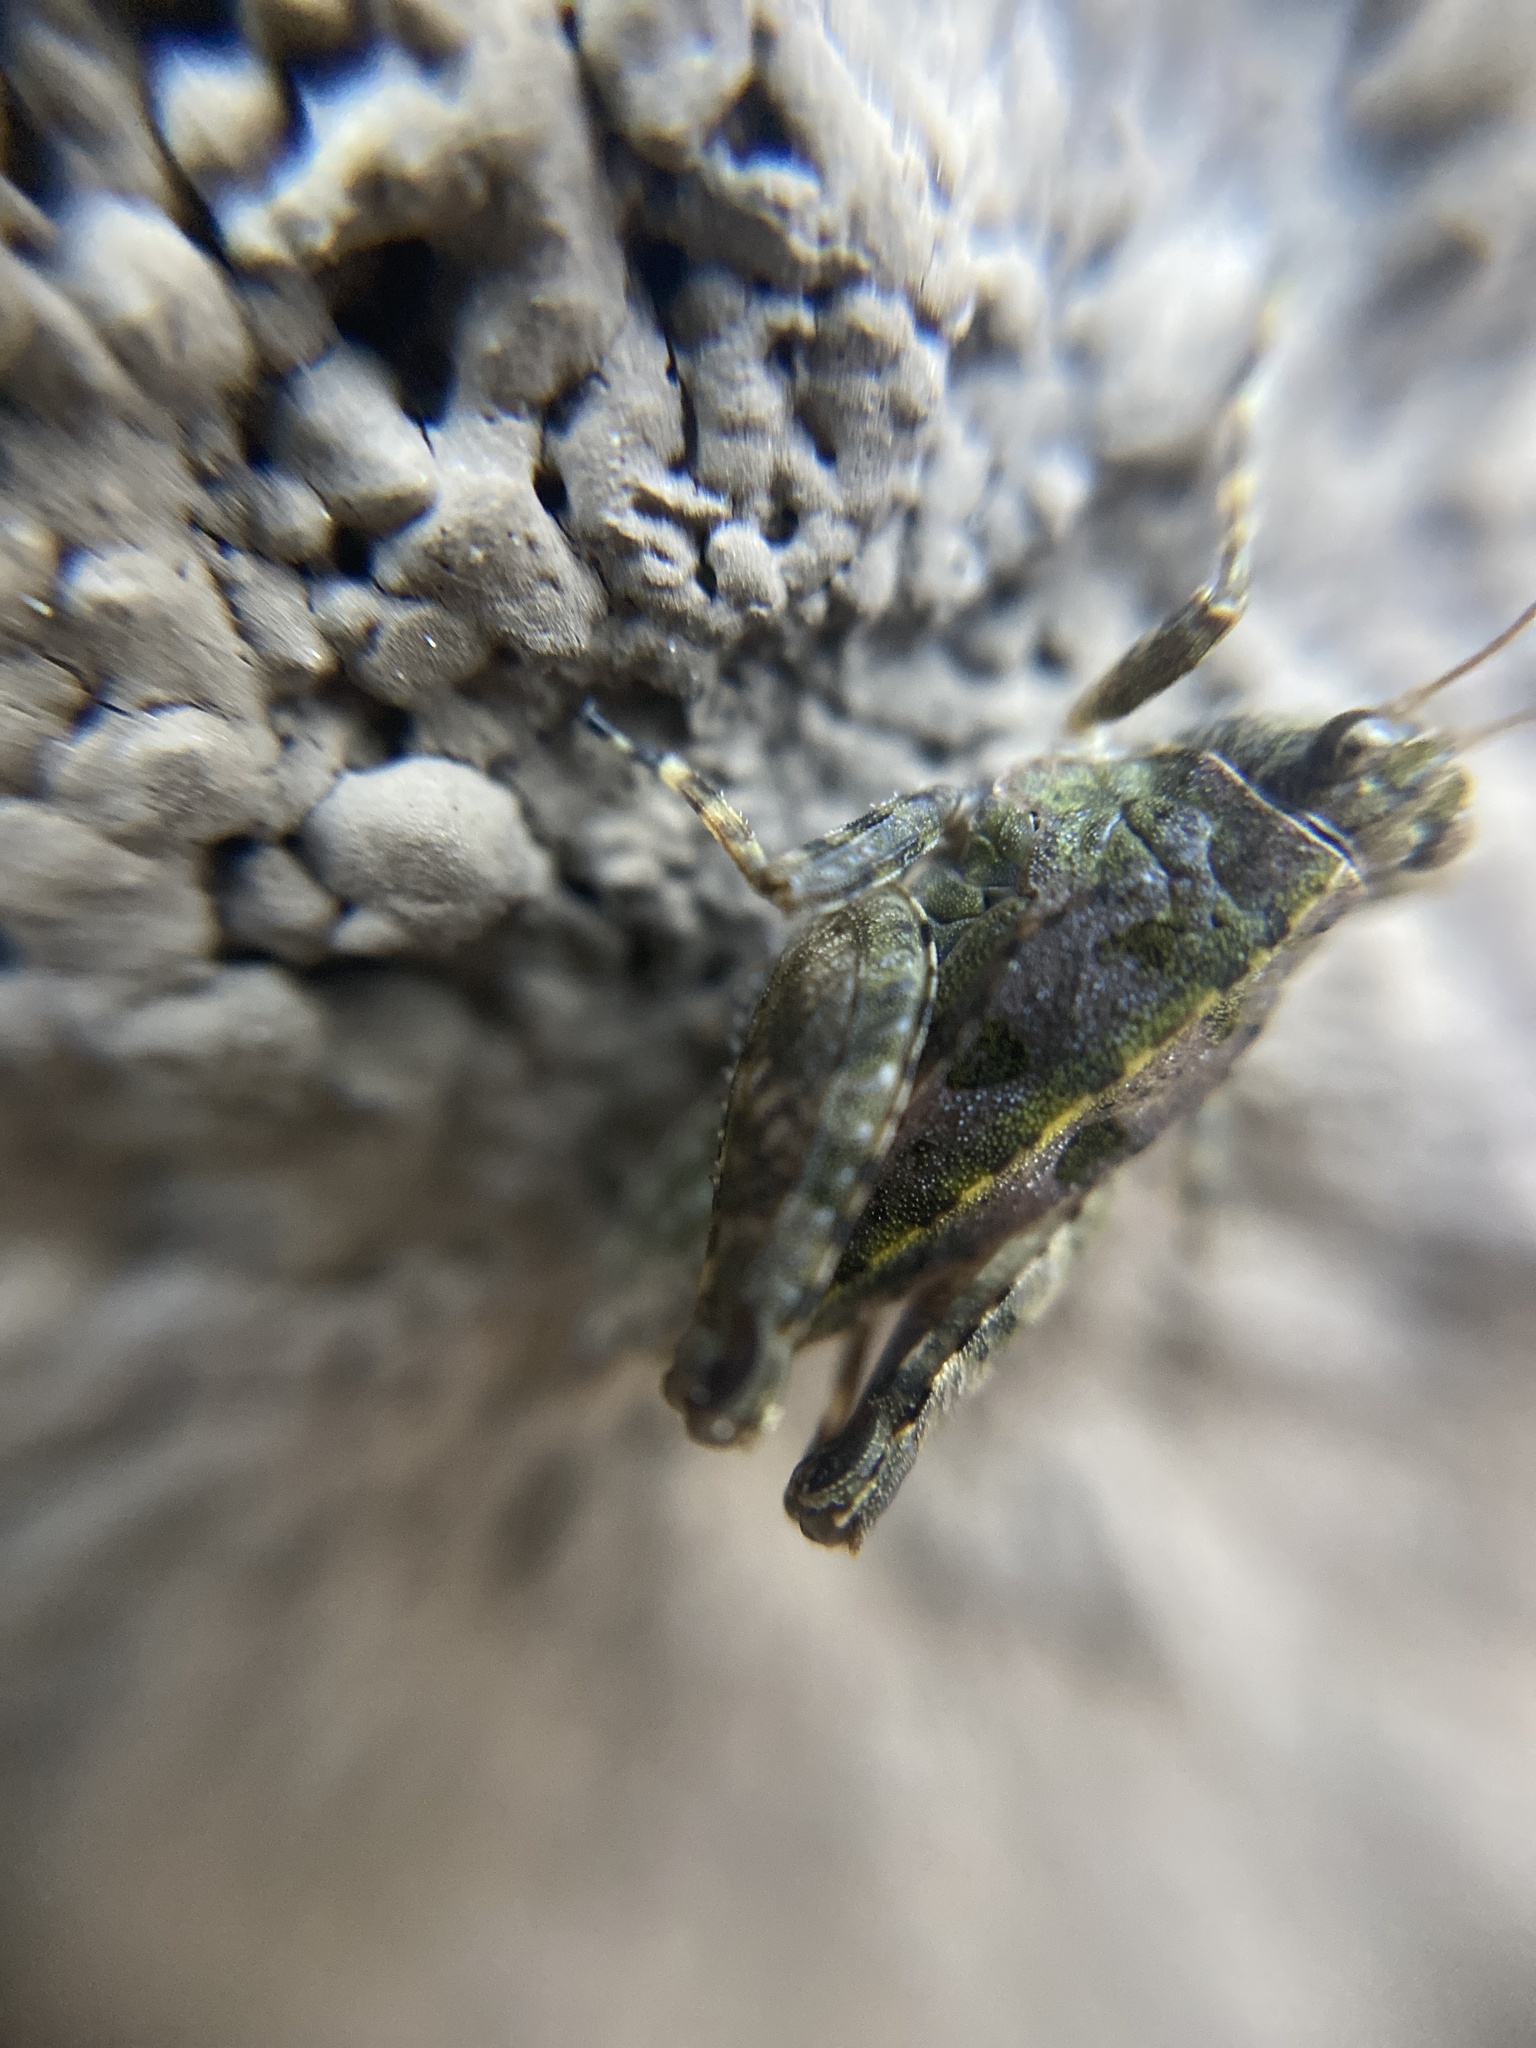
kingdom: Animalia
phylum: Arthropoda
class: Insecta
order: Orthoptera
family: Tetrigidae
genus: Tetrix
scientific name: Tetrix tenuicornis
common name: Long-horned groundhopper
